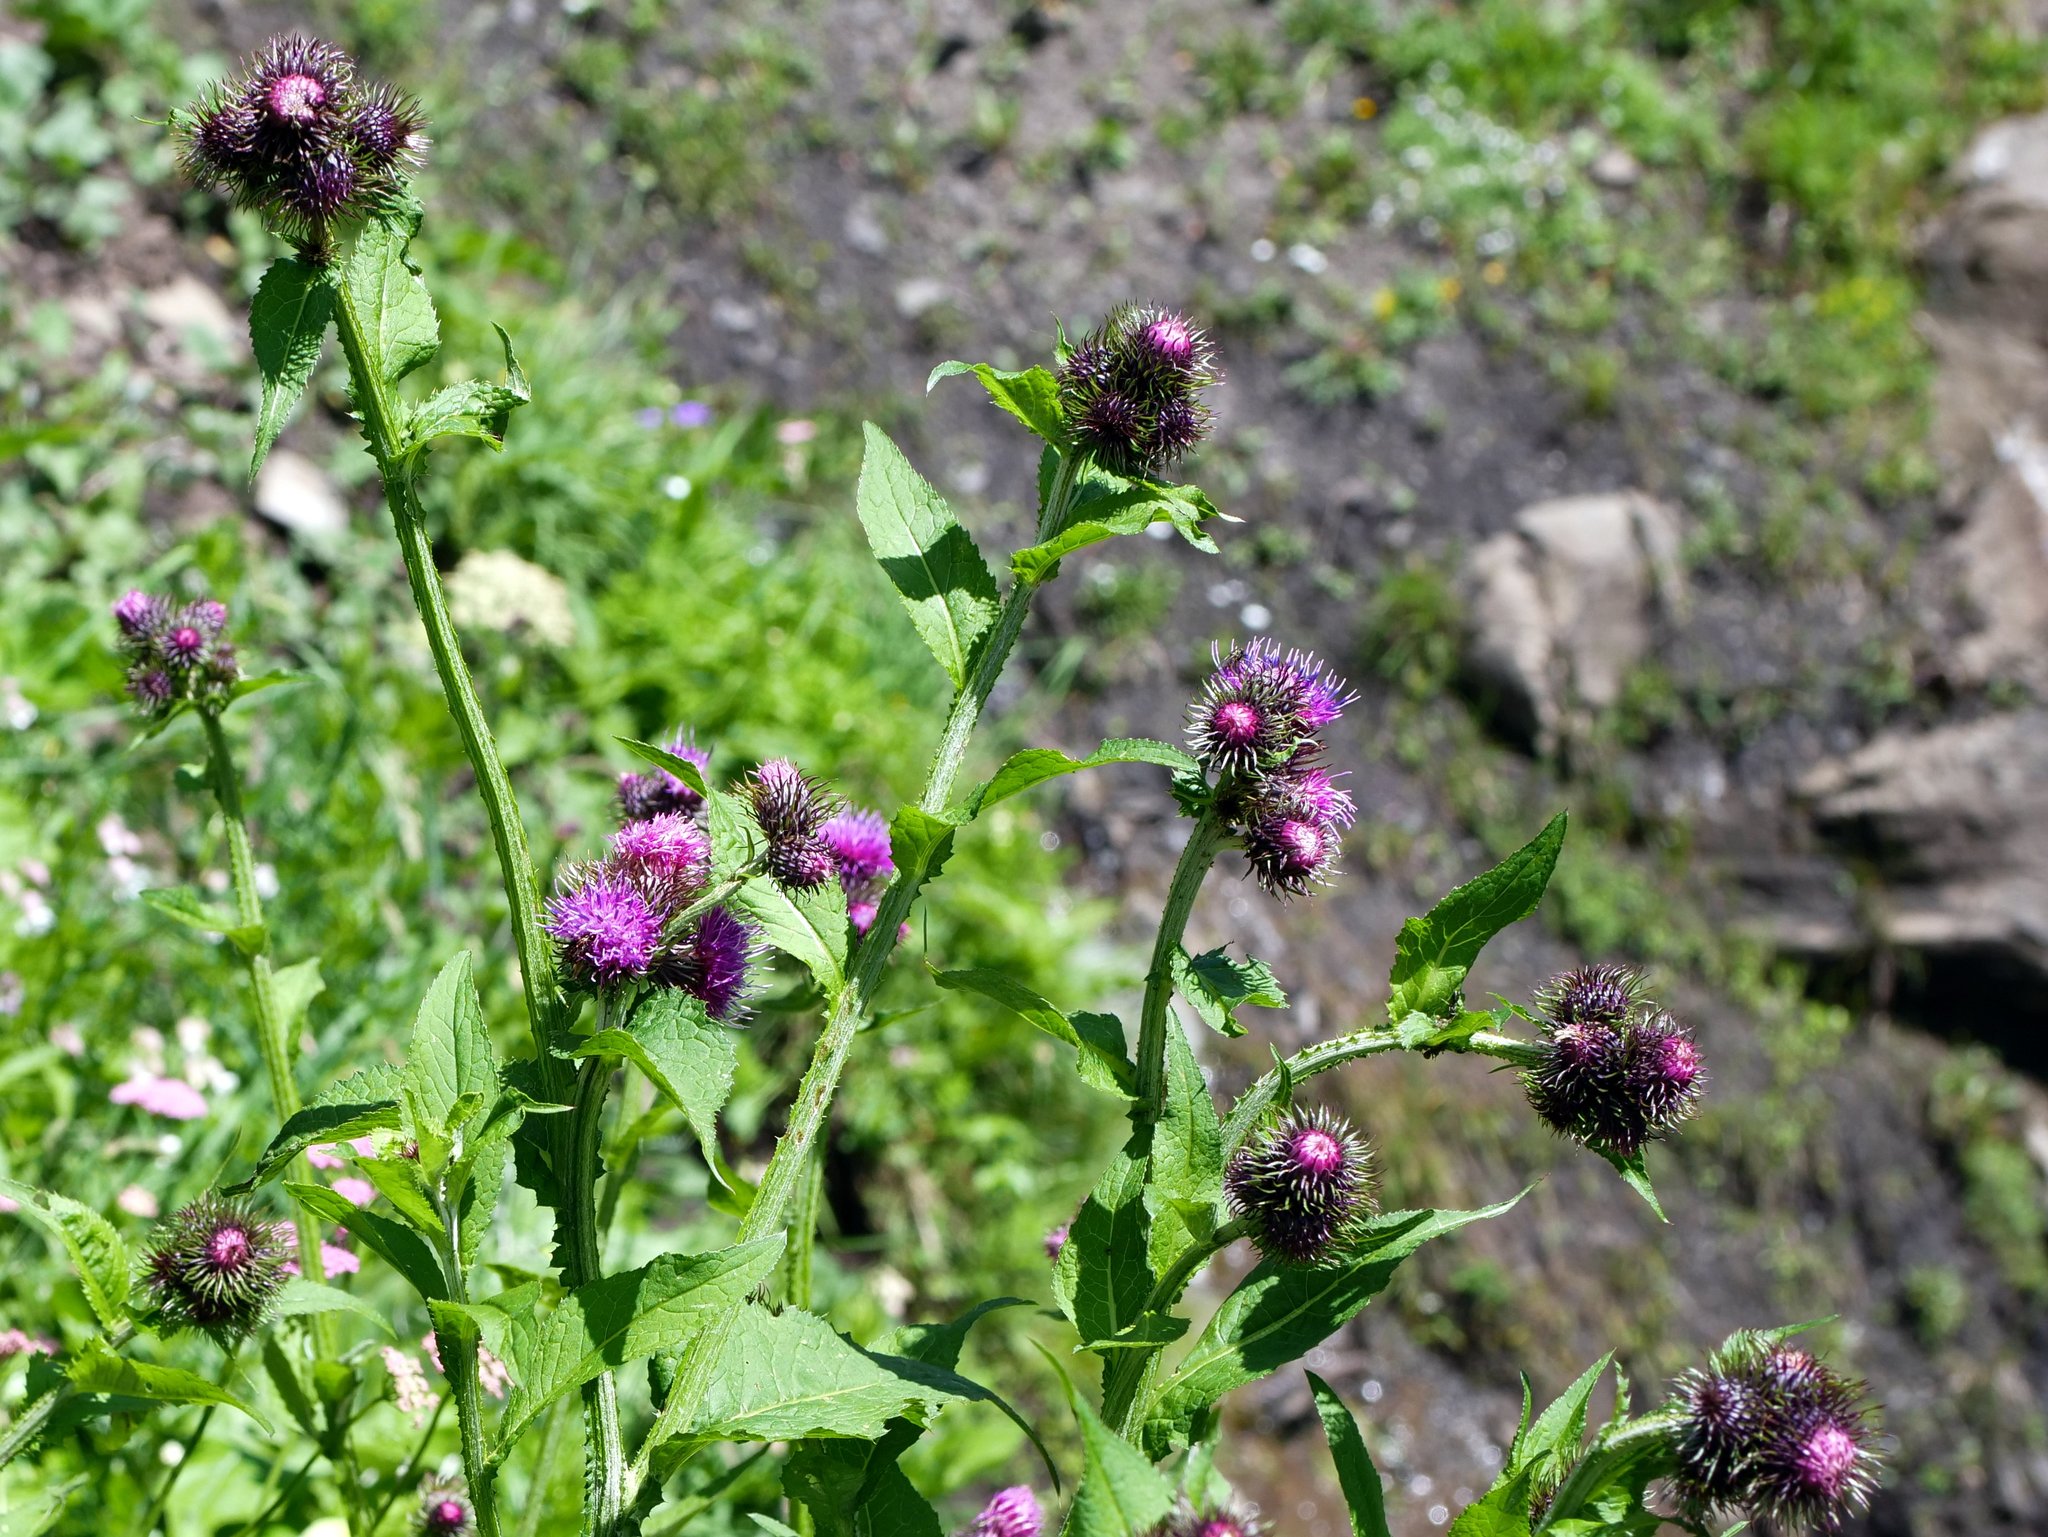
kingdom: Plantae
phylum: Tracheophyta
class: Magnoliopsida
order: Asterales
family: Asteraceae
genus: Carduus
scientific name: Carduus personata
